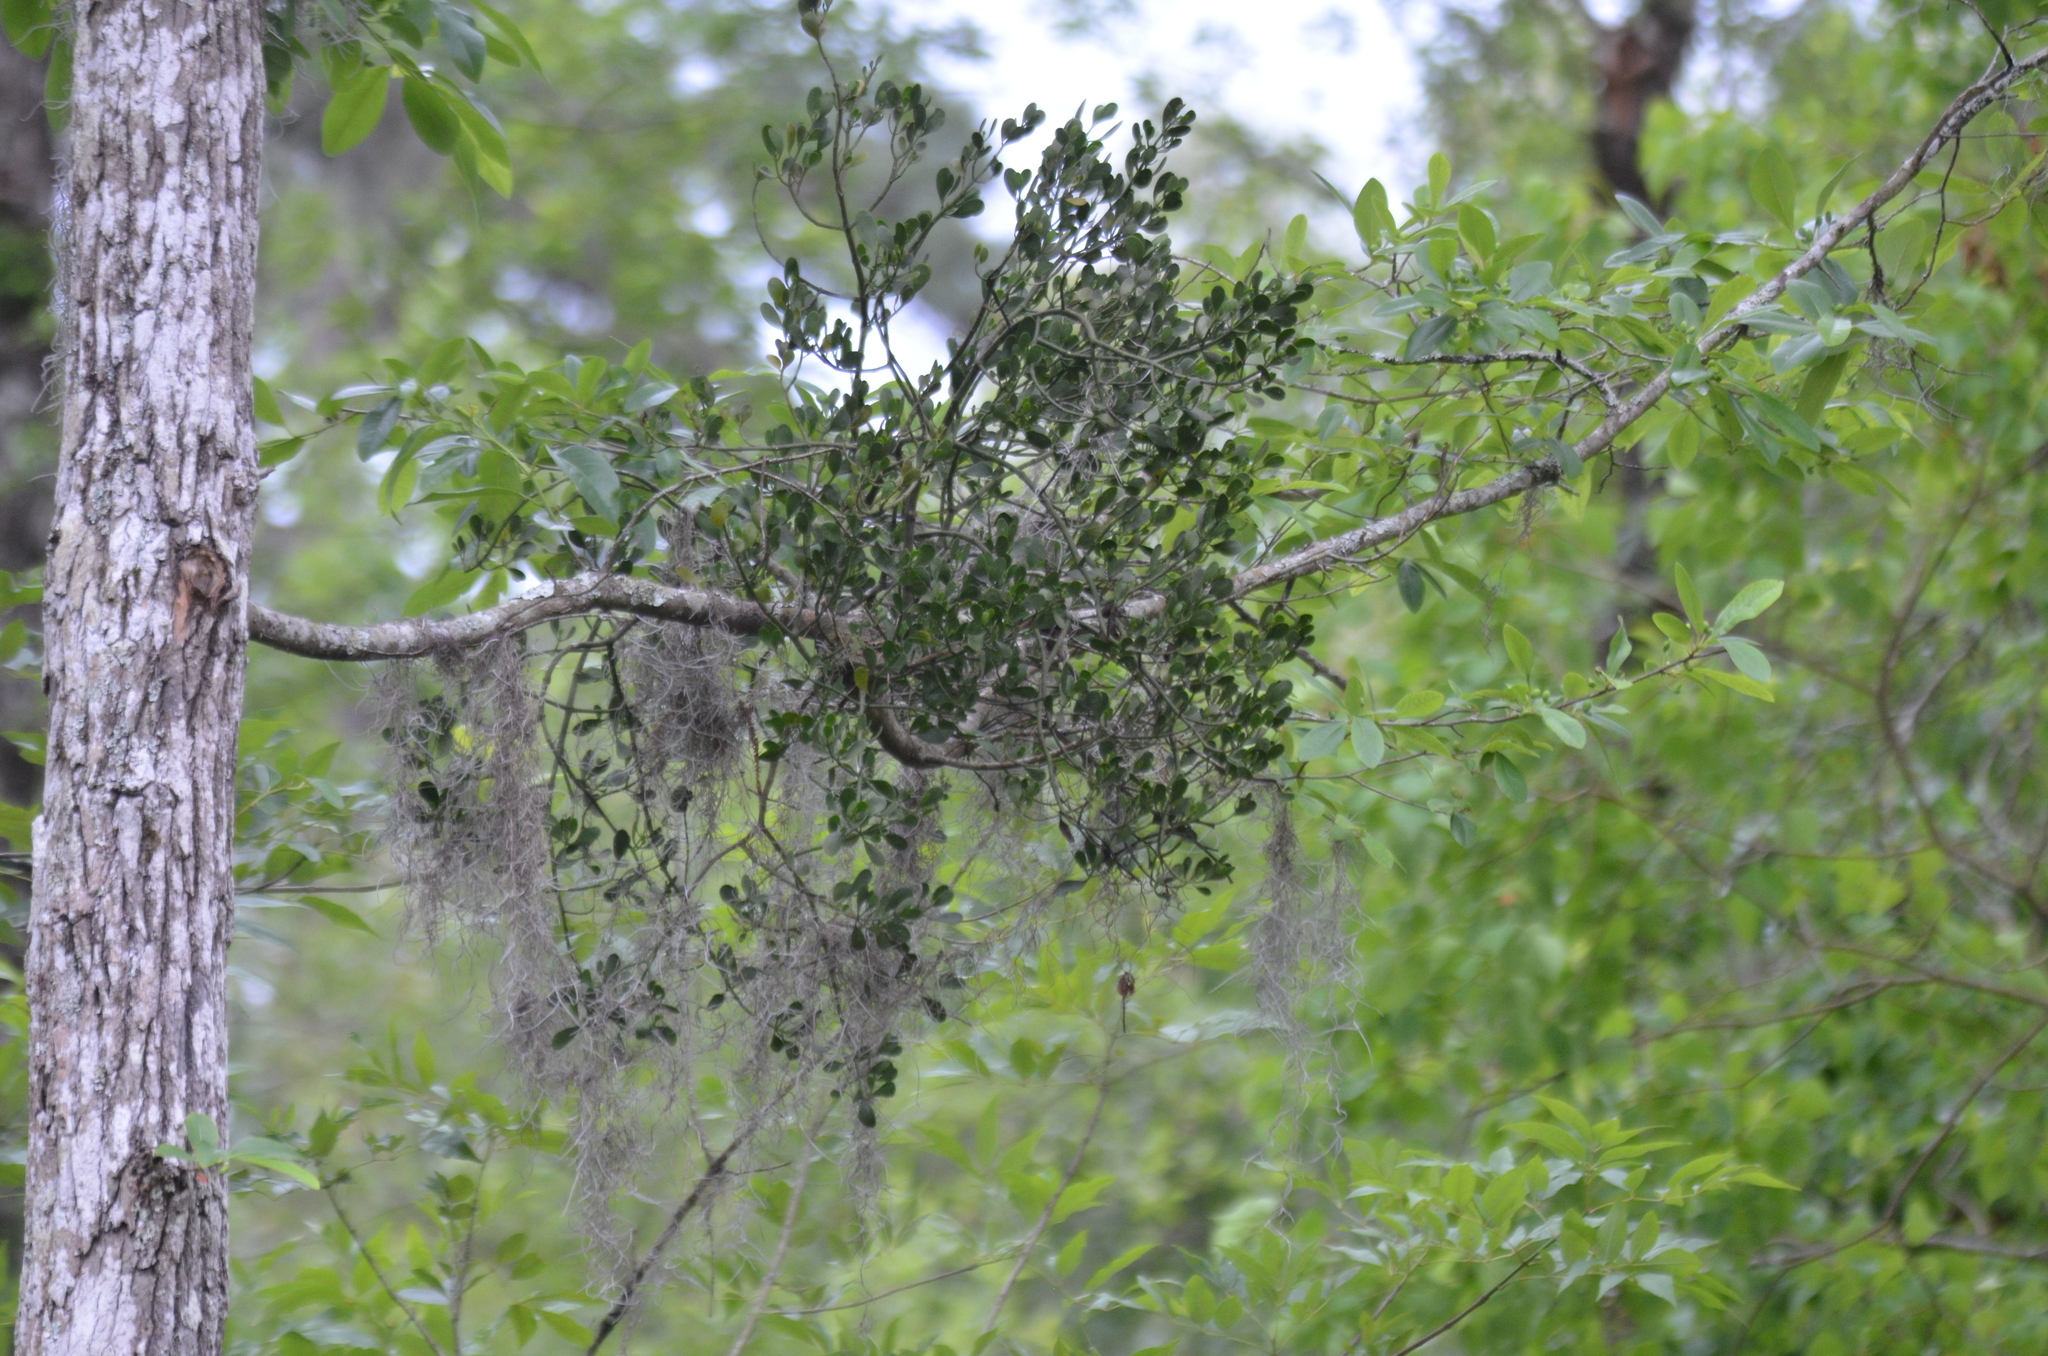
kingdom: Plantae
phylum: Tracheophyta
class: Magnoliopsida
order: Santalales
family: Viscaceae
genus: Phoradendron
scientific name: Phoradendron leucarpum
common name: Pacific mistletoe
